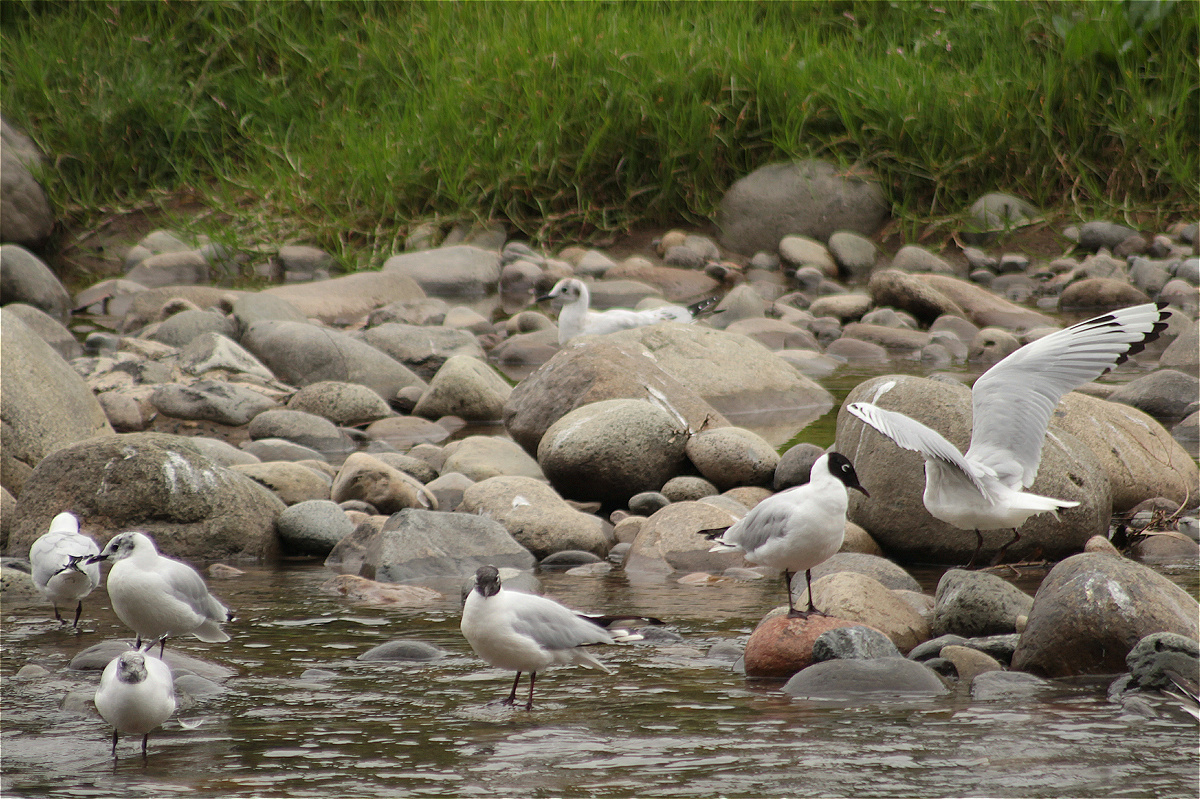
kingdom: Animalia
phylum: Chordata
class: Aves
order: Charadriiformes
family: Laridae
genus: Chroicocephalus
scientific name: Chroicocephalus serranus
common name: Andean gull
